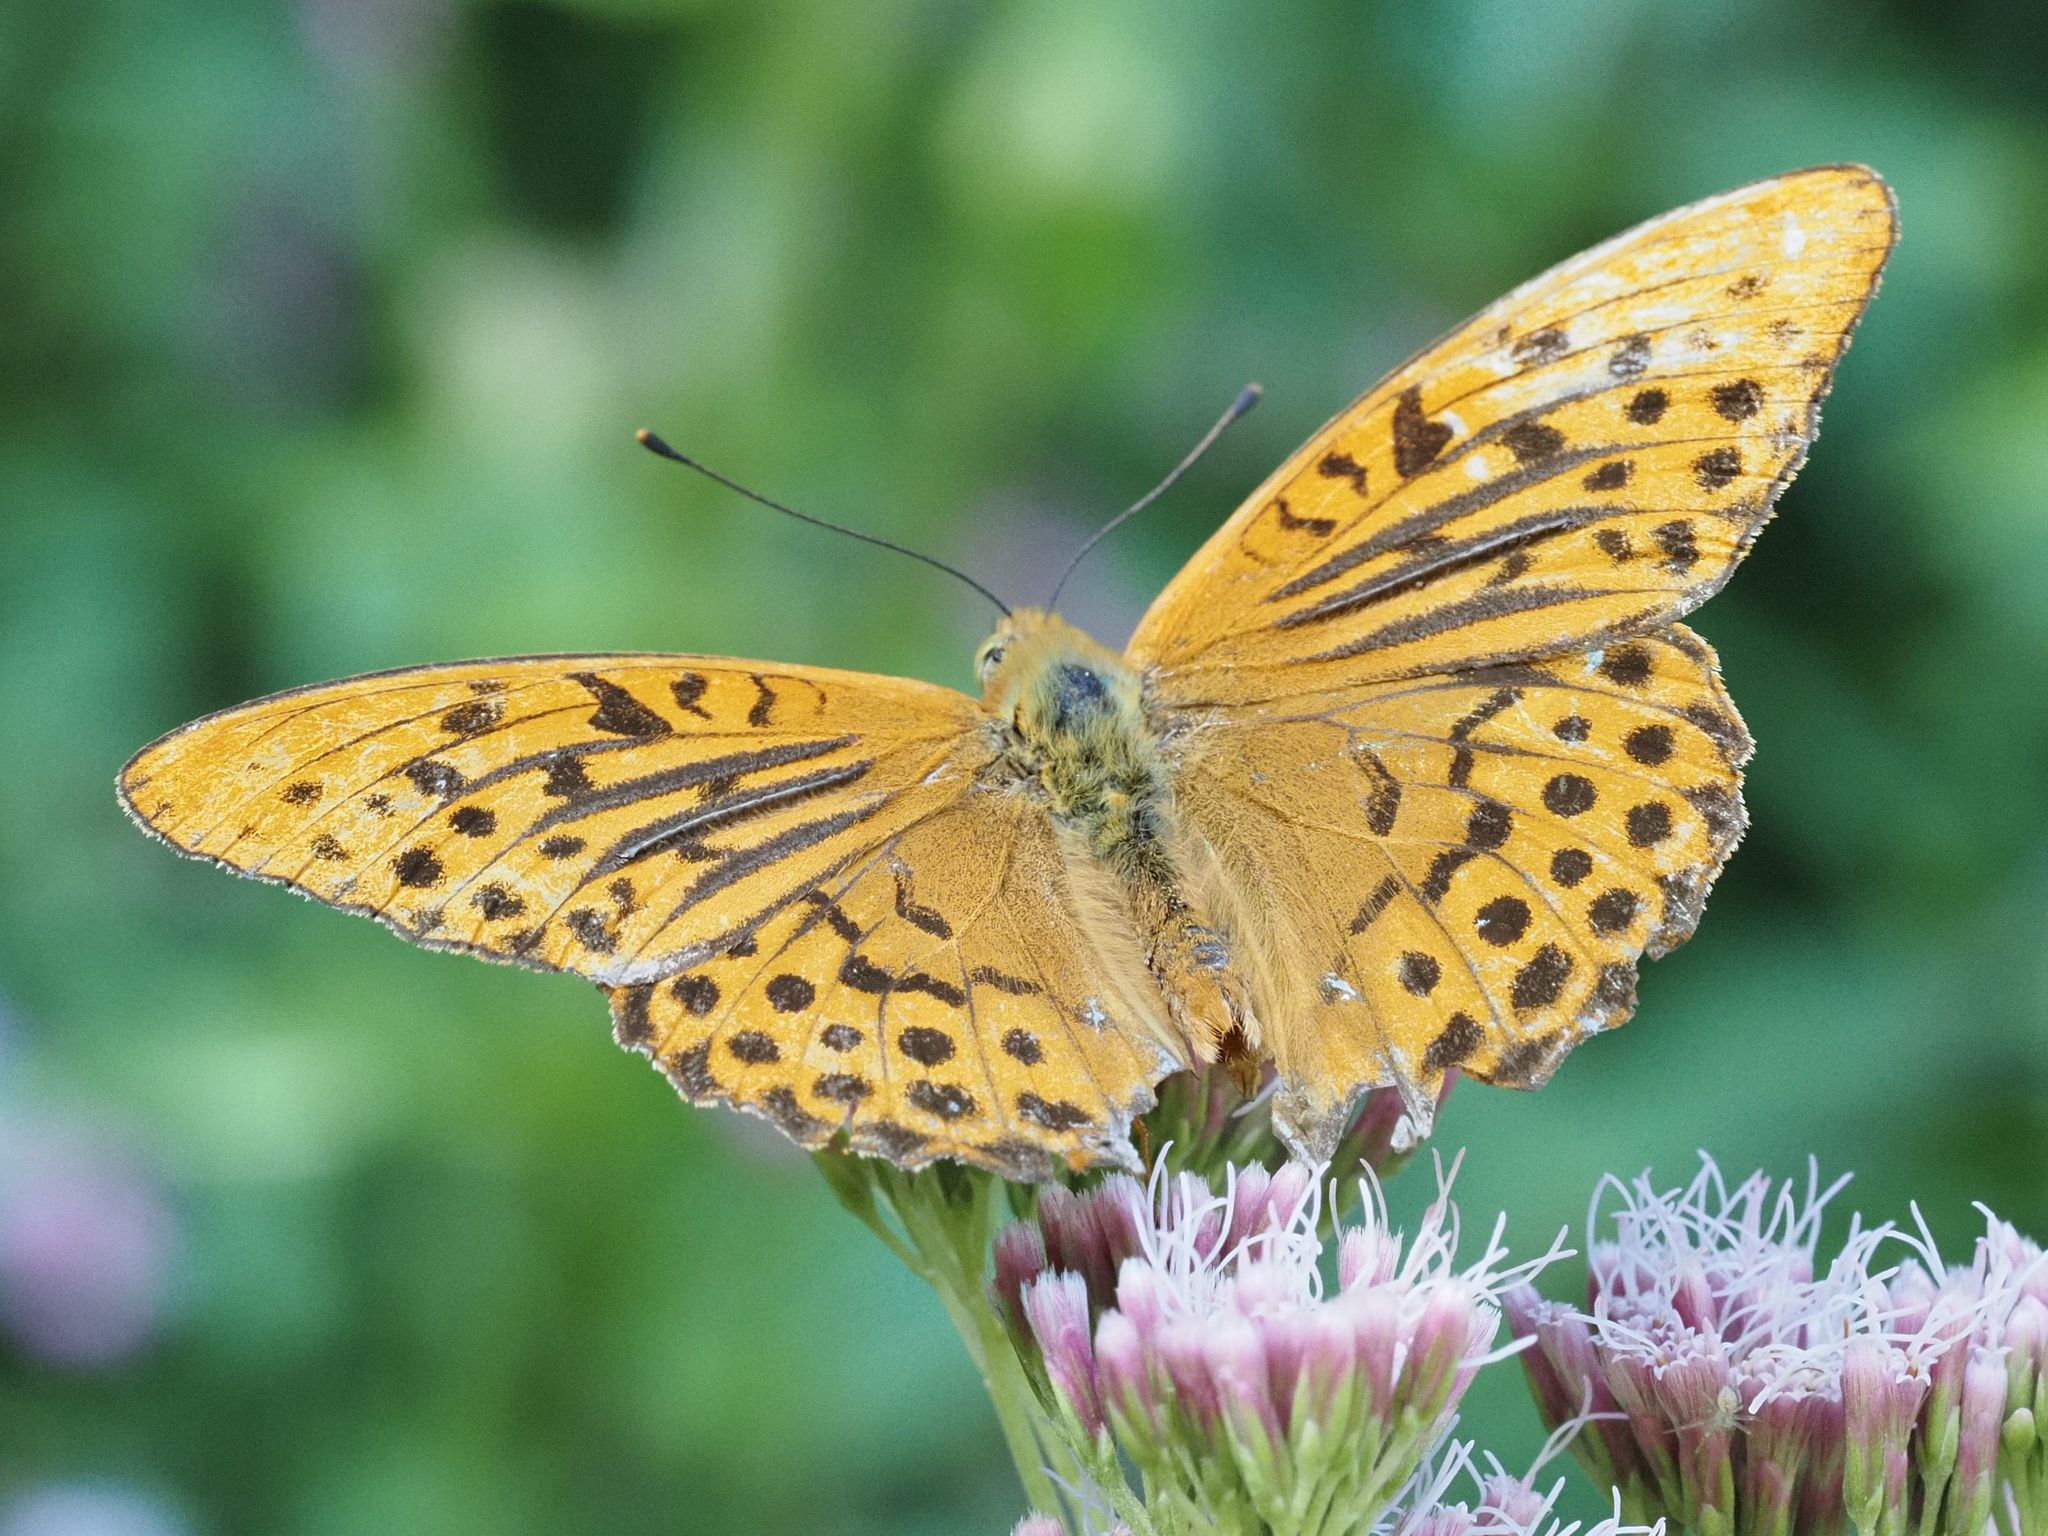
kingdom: Animalia
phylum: Arthropoda
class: Insecta
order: Lepidoptera
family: Nymphalidae
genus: Argynnis
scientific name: Argynnis paphia
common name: Silver-washed fritillary
